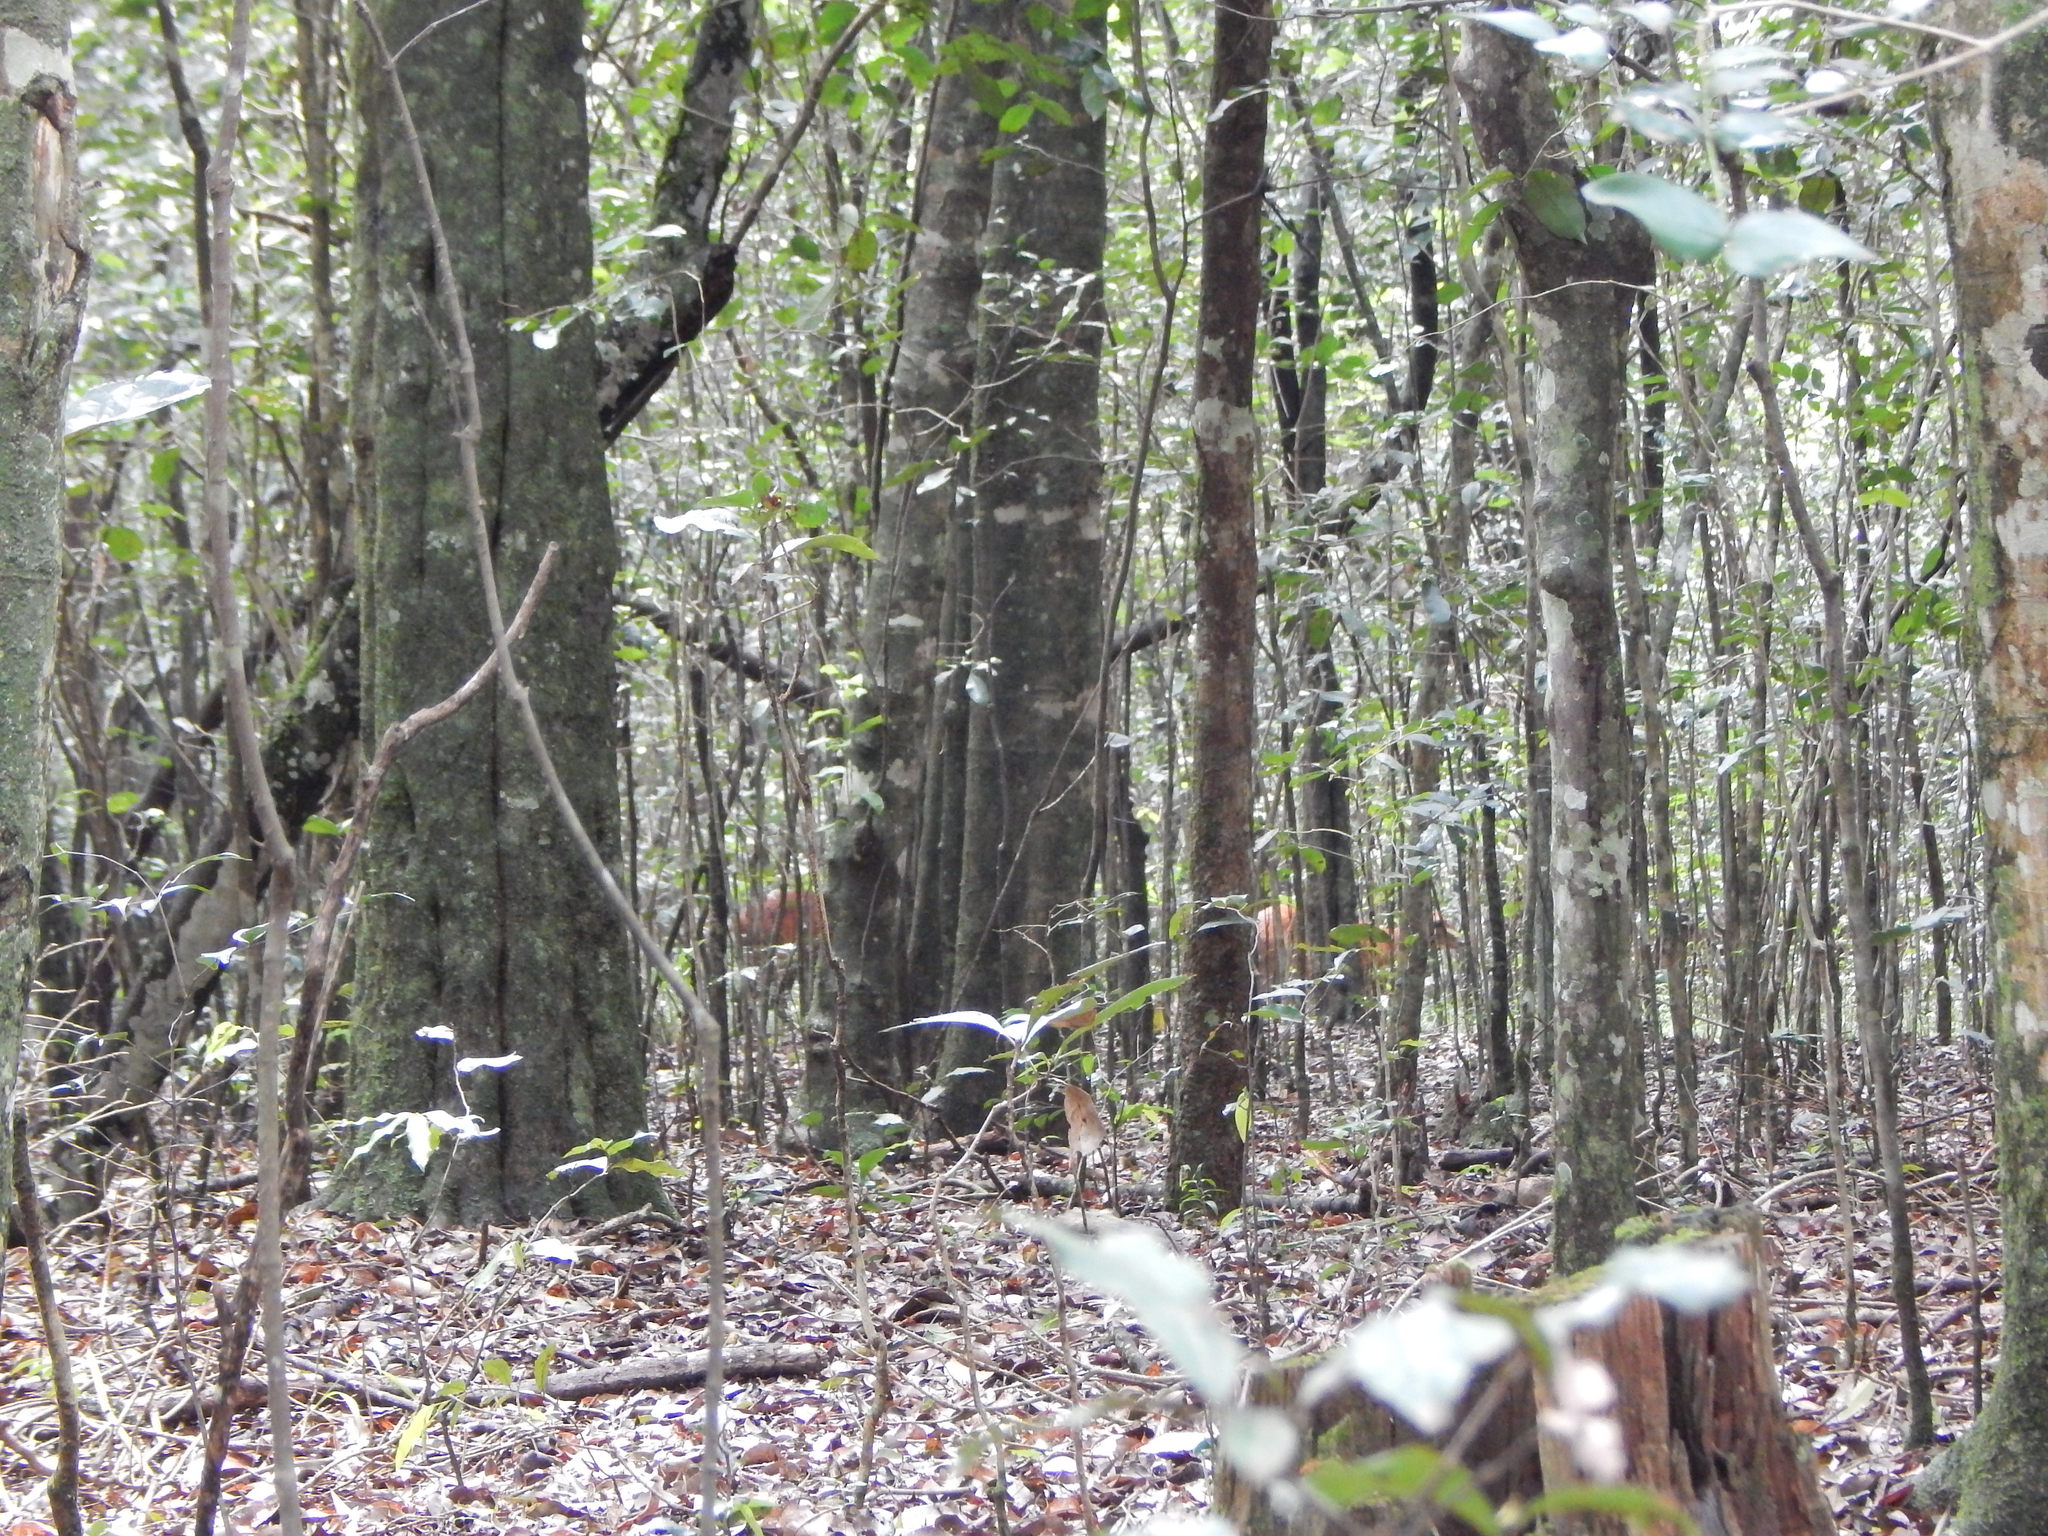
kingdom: Animalia
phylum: Chordata
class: Mammalia
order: Artiodactyla
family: Bovidae
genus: Cephalophus
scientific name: Cephalophus natalensis
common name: Red duiker
